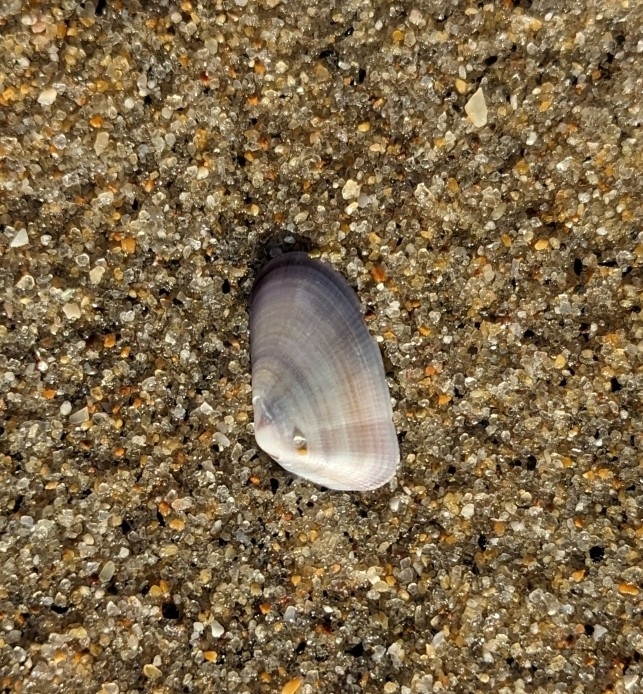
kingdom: Animalia
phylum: Mollusca
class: Bivalvia
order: Cardiida
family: Donacidae
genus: Donax
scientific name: Donax gouldii
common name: Gould beanclam
